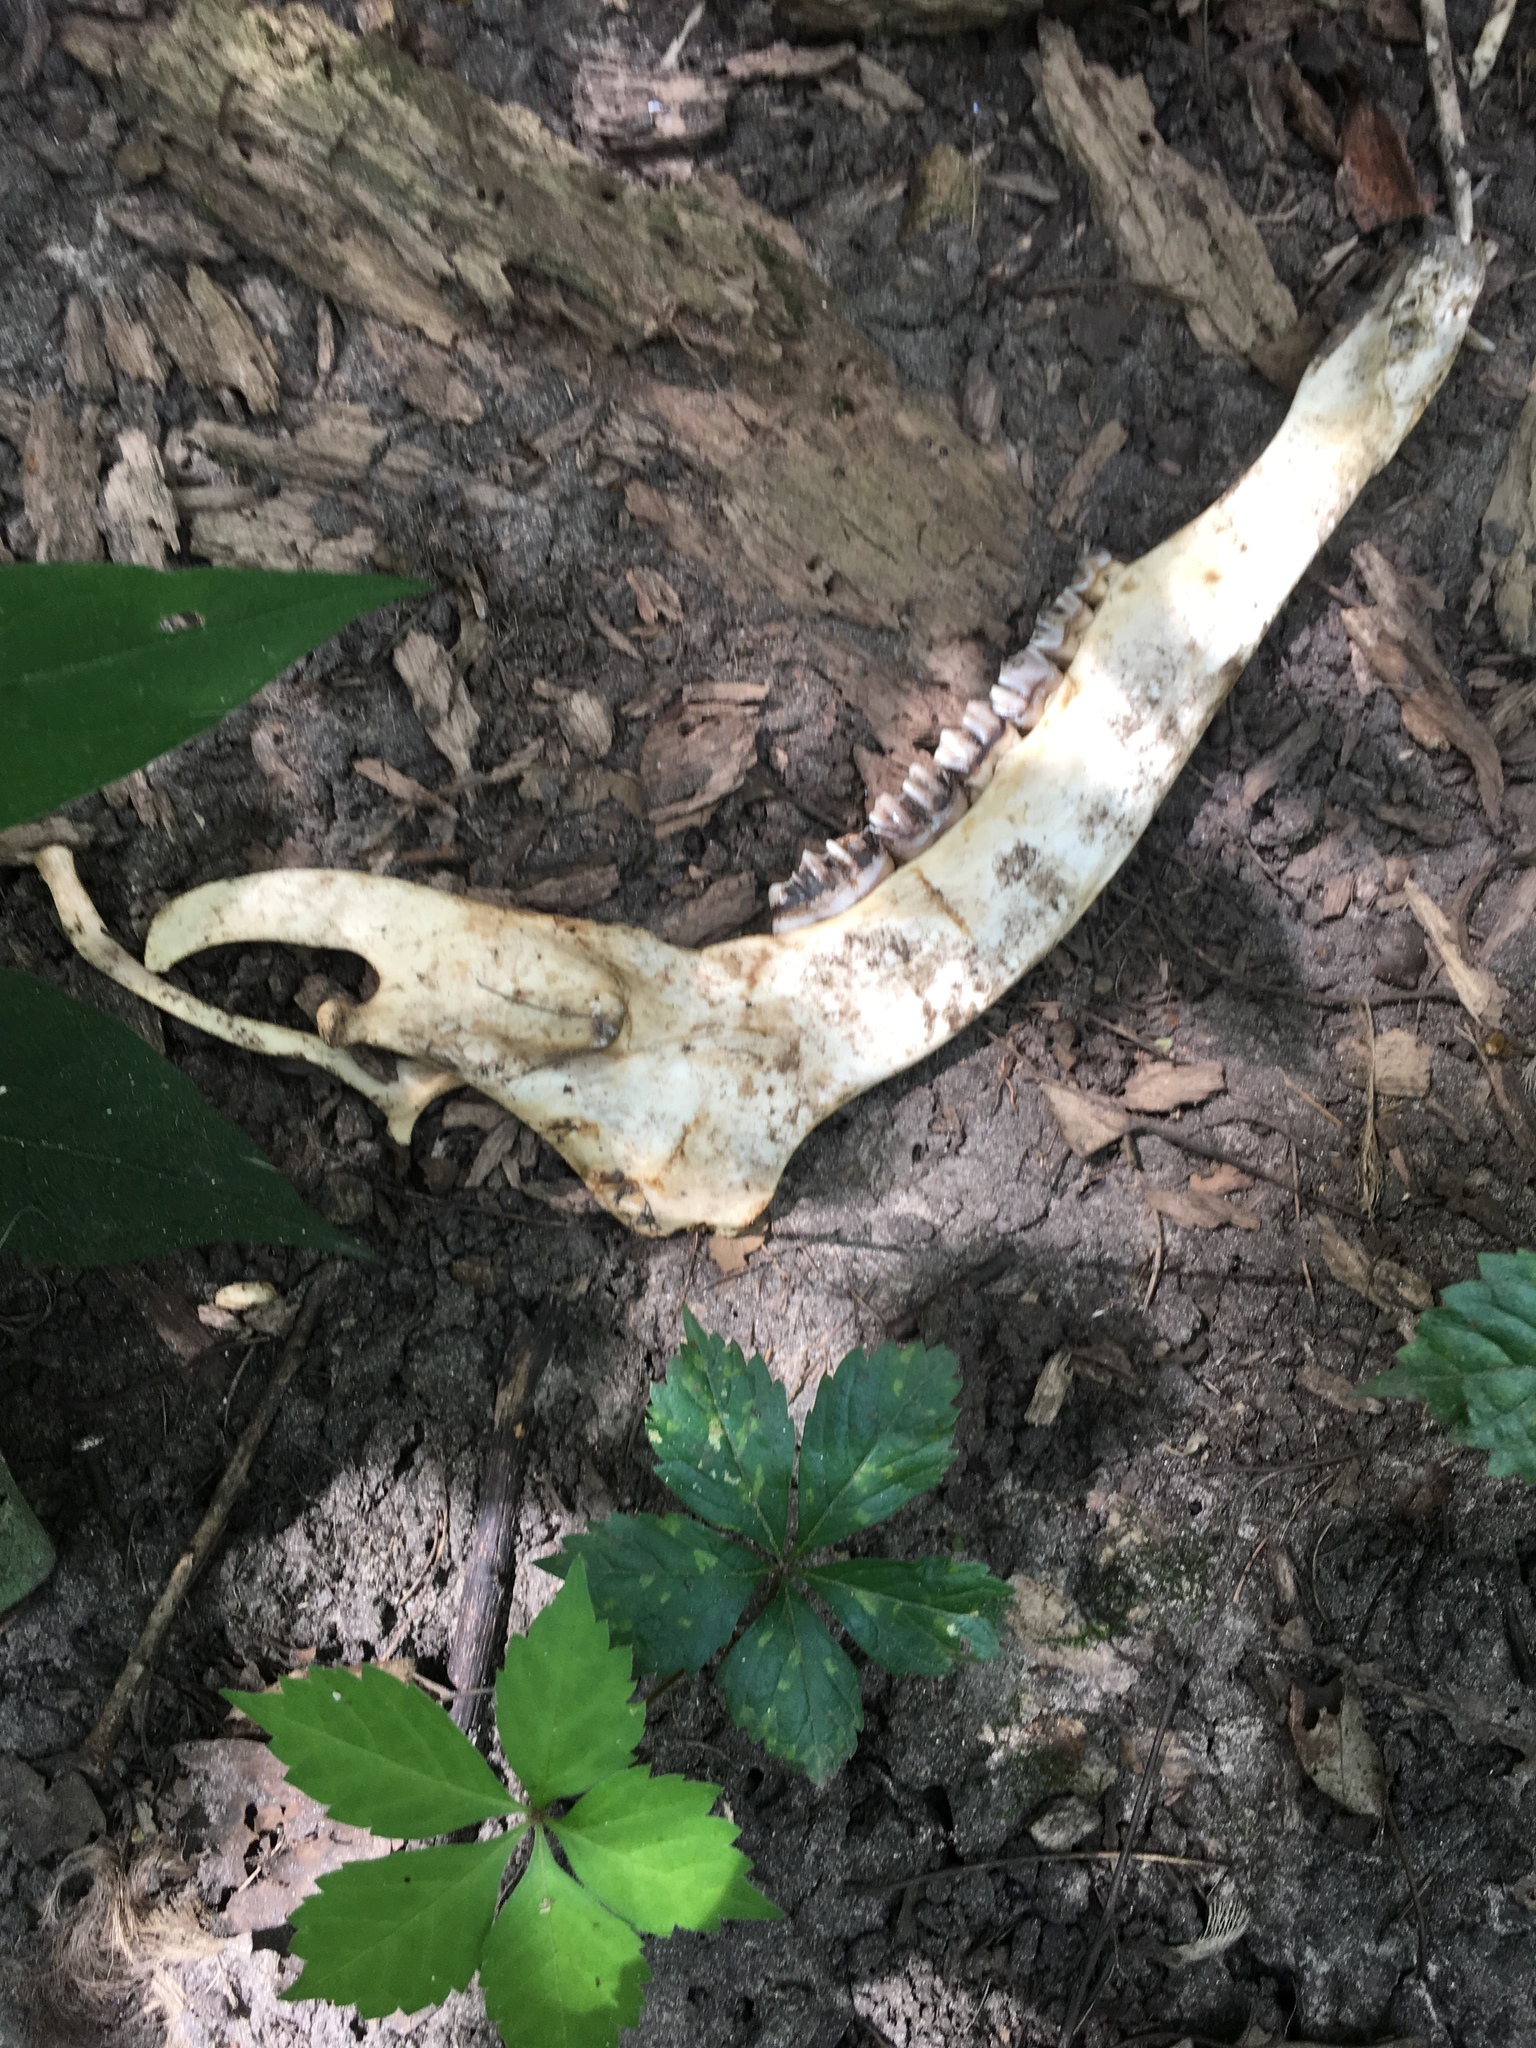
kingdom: Animalia
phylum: Chordata
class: Mammalia
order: Artiodactyla
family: Cervidae
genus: Odocoileus
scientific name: Odocoileus virginianus
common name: White-tailed deer
